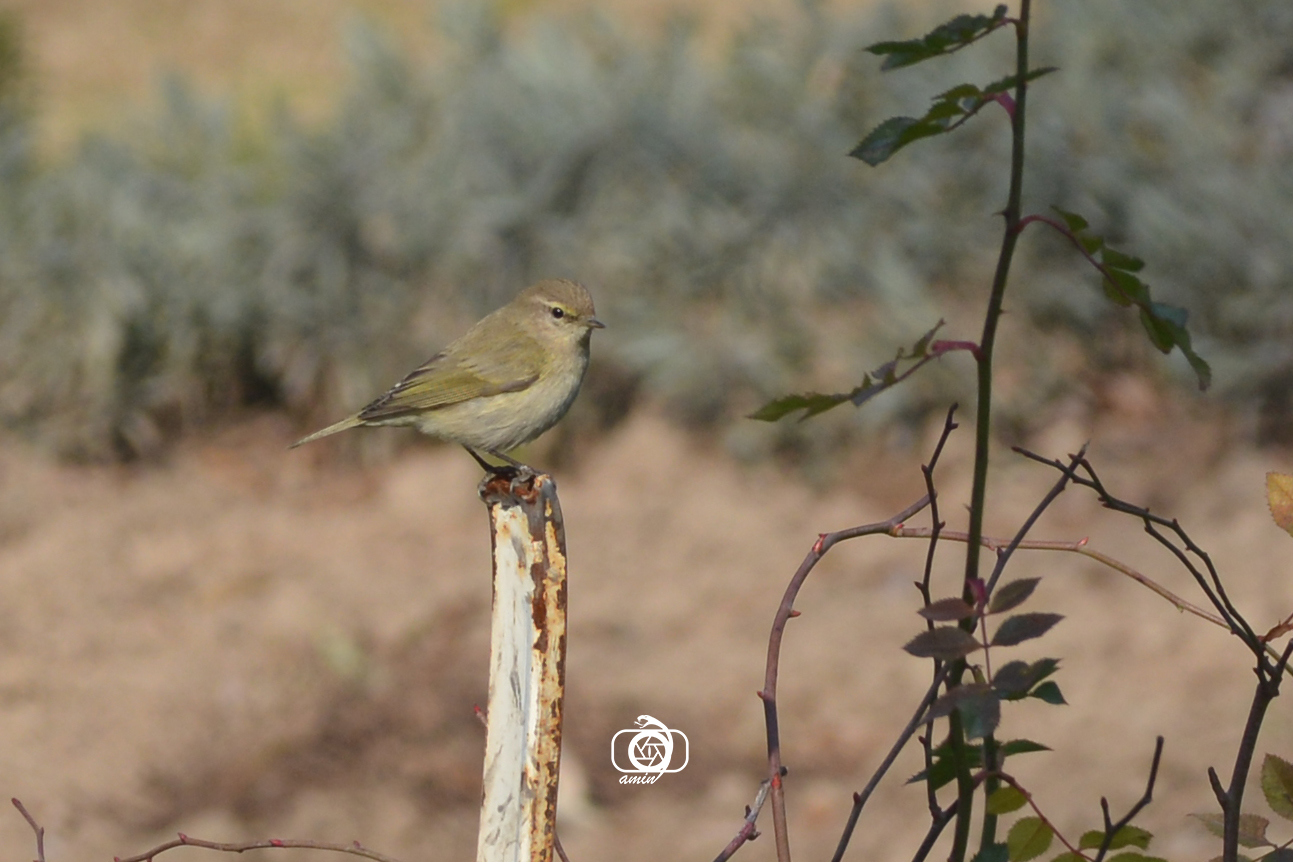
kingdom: Animalia
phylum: Chordata
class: Aves
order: Passeriformes
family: Phylloscopidae
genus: Phylloscopus
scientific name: Phylloscopus collybita
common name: Common chiffchaff
